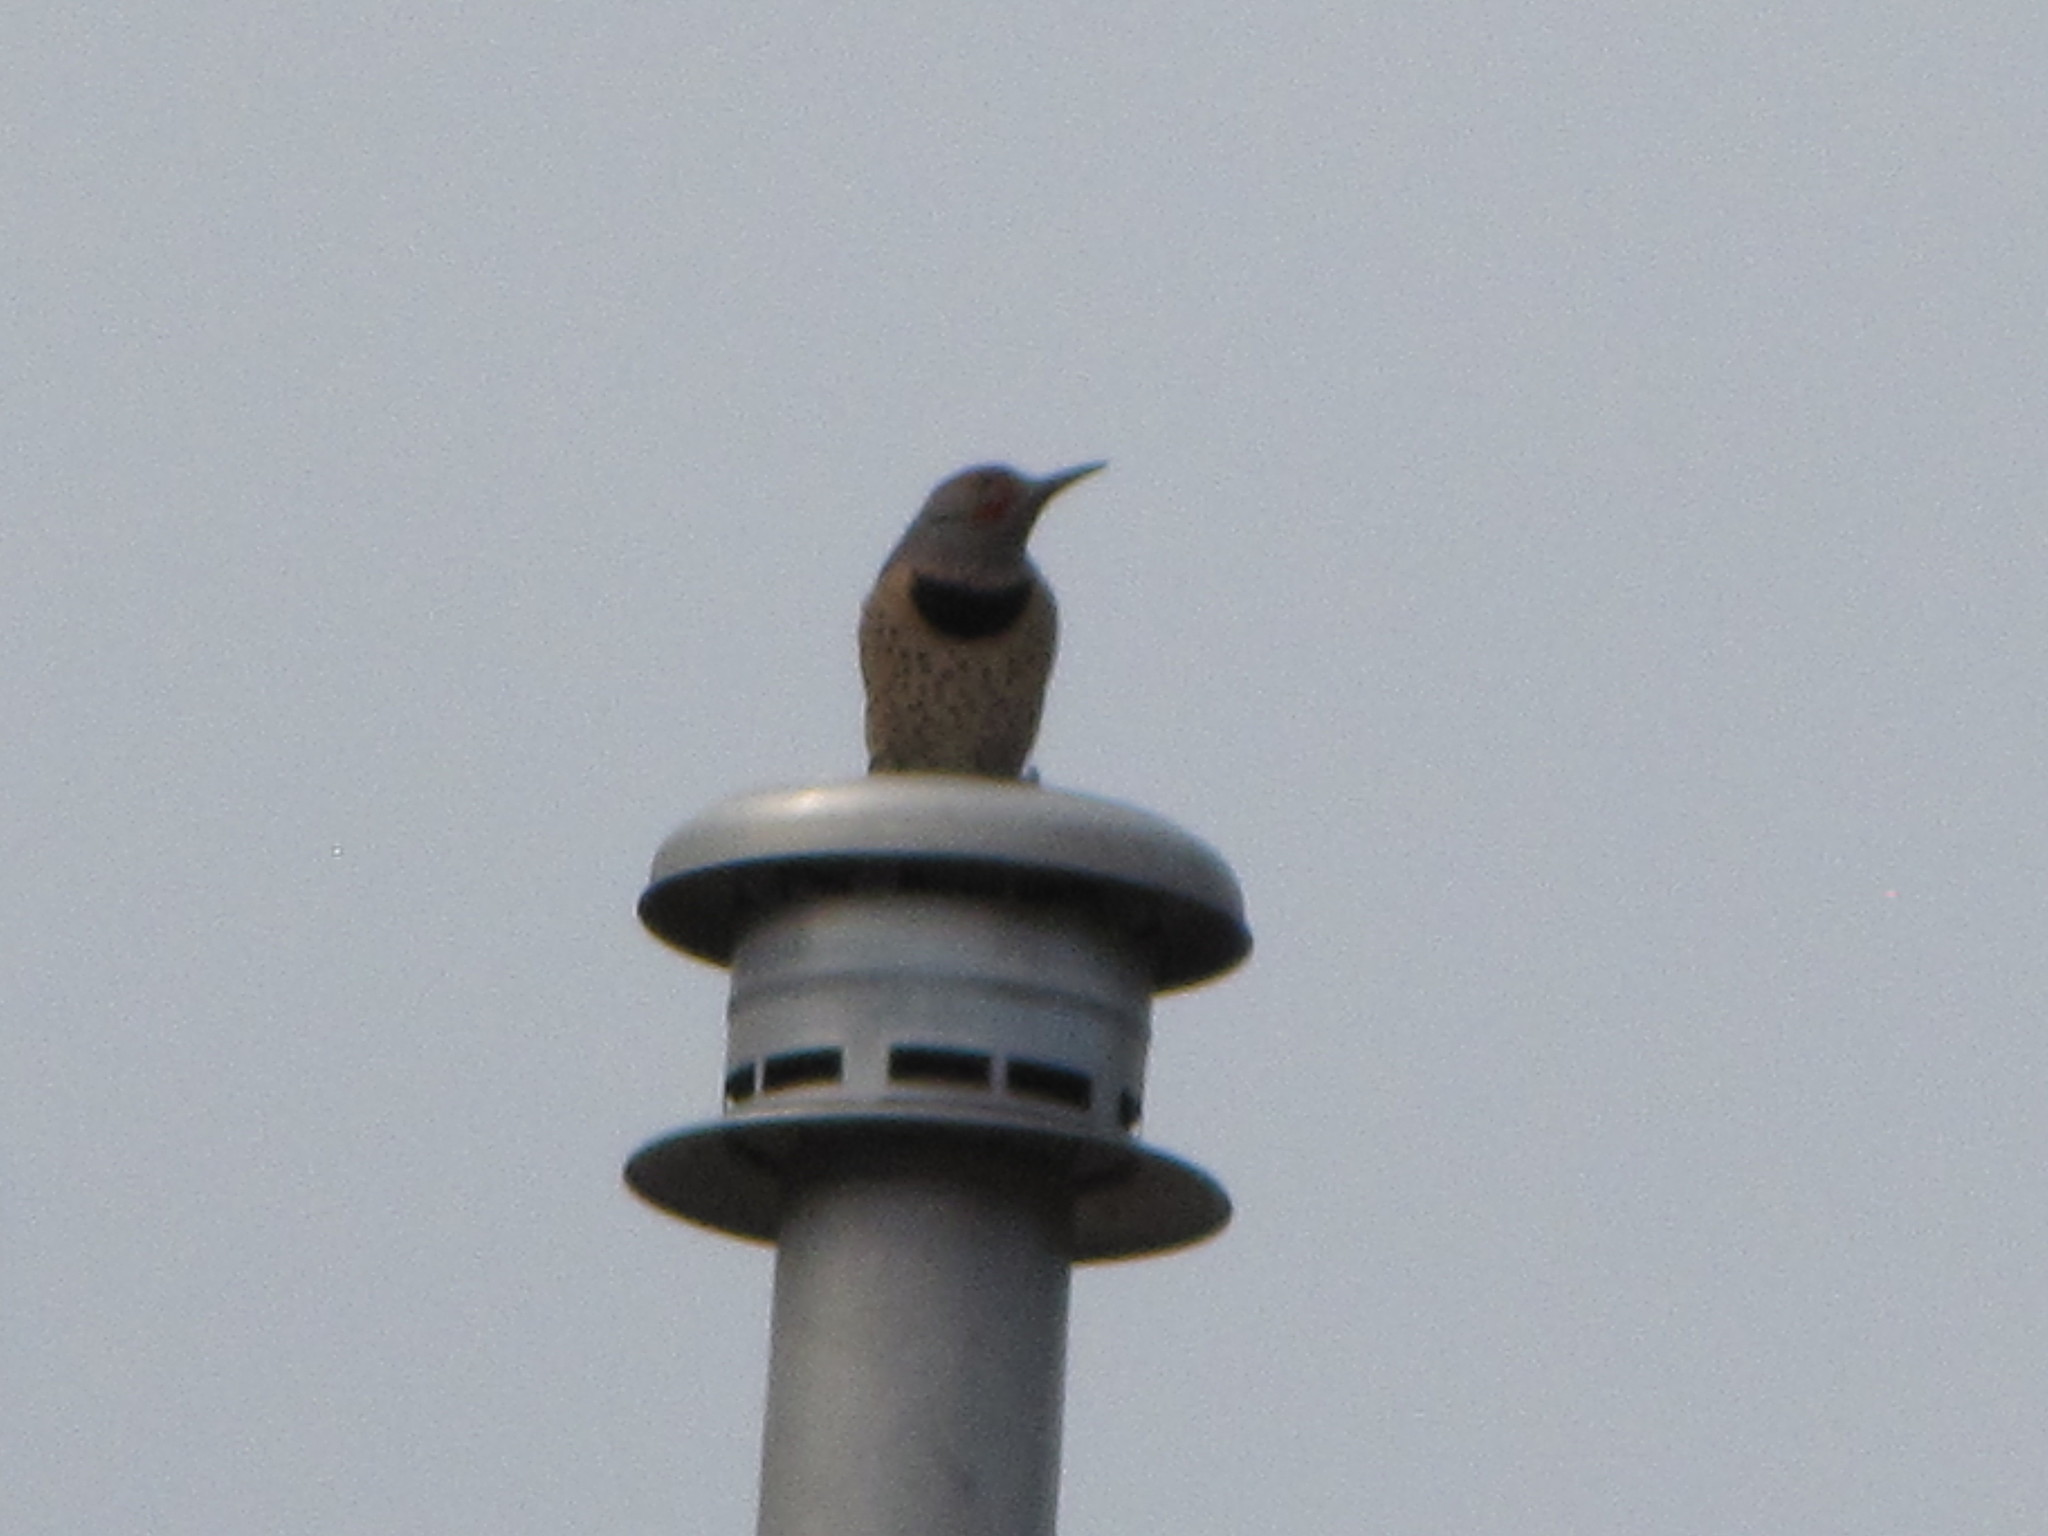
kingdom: Animalia
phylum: Chordata
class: Aves
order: Piciformes
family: Picidae
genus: Colaptes
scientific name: Colaptes auratus
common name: Northern flicker
